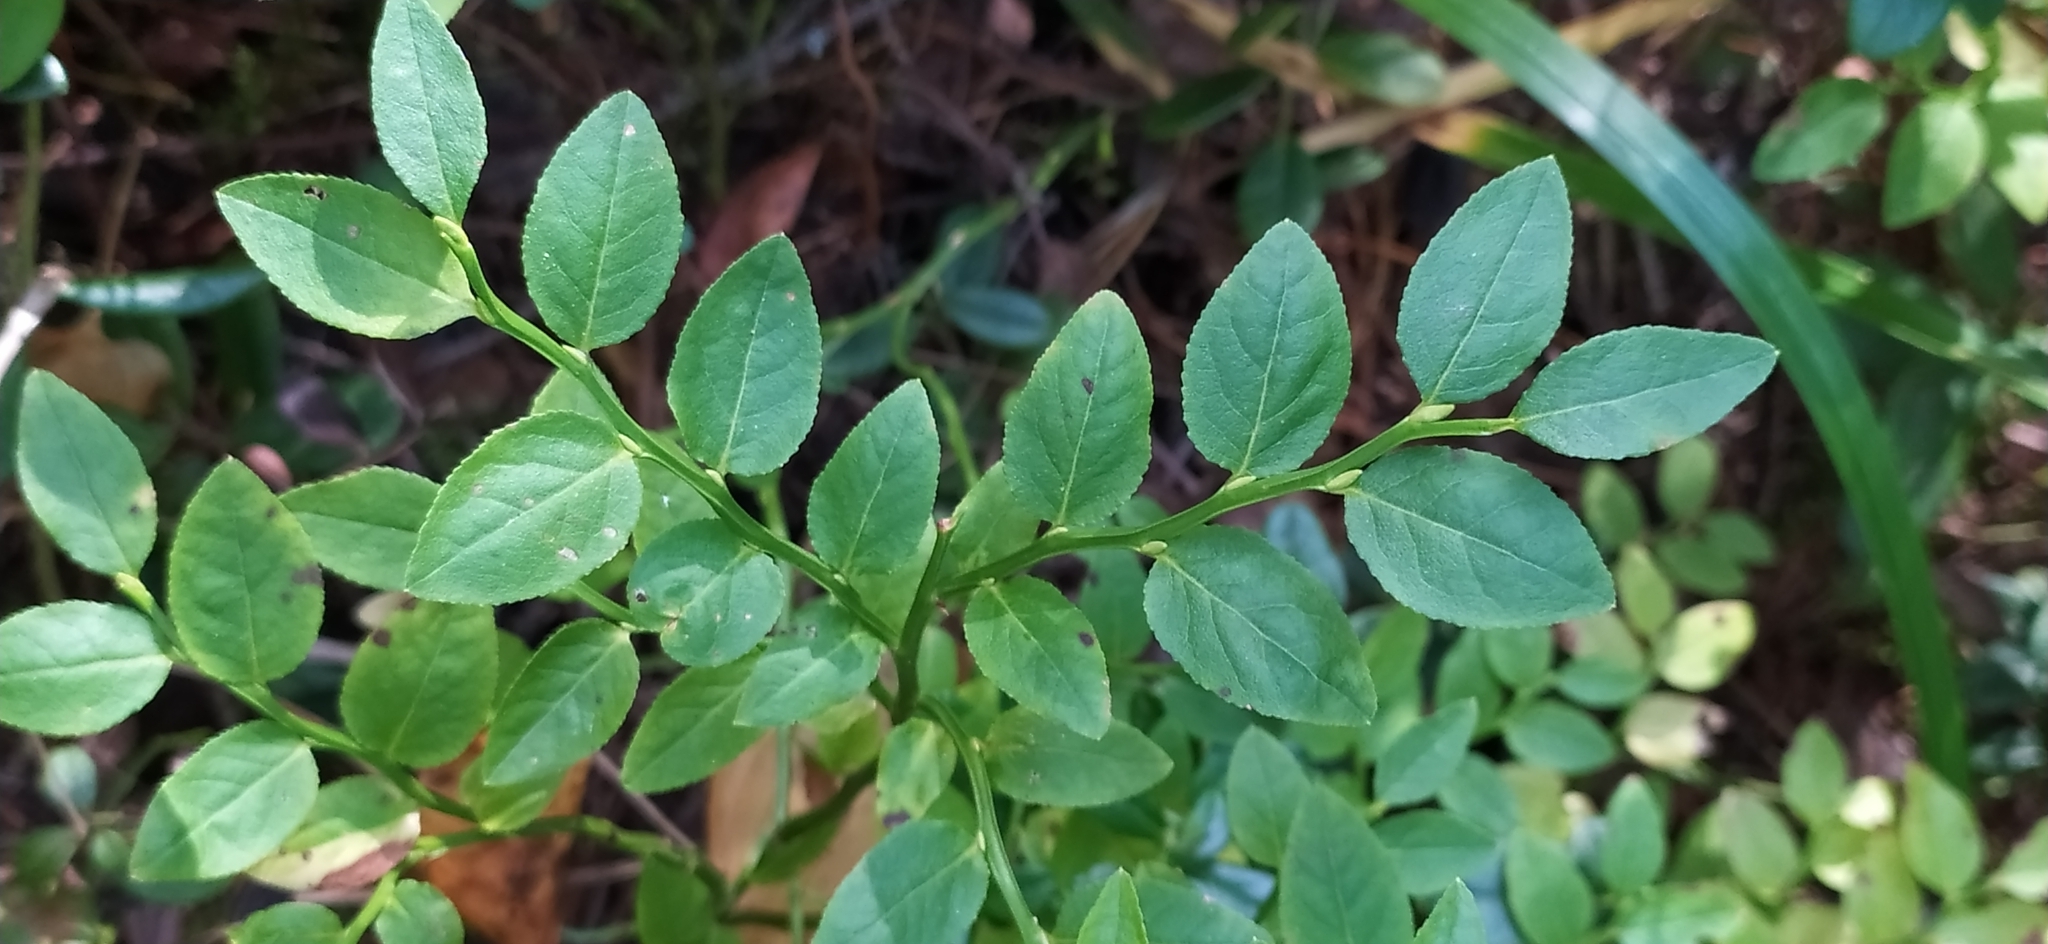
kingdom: Plantae
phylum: Tracheophyta
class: Magnoliopsida
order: Ericales
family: Ericaceae
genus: Vaccinium
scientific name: Vaccinium myrtillus
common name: Bilberry
